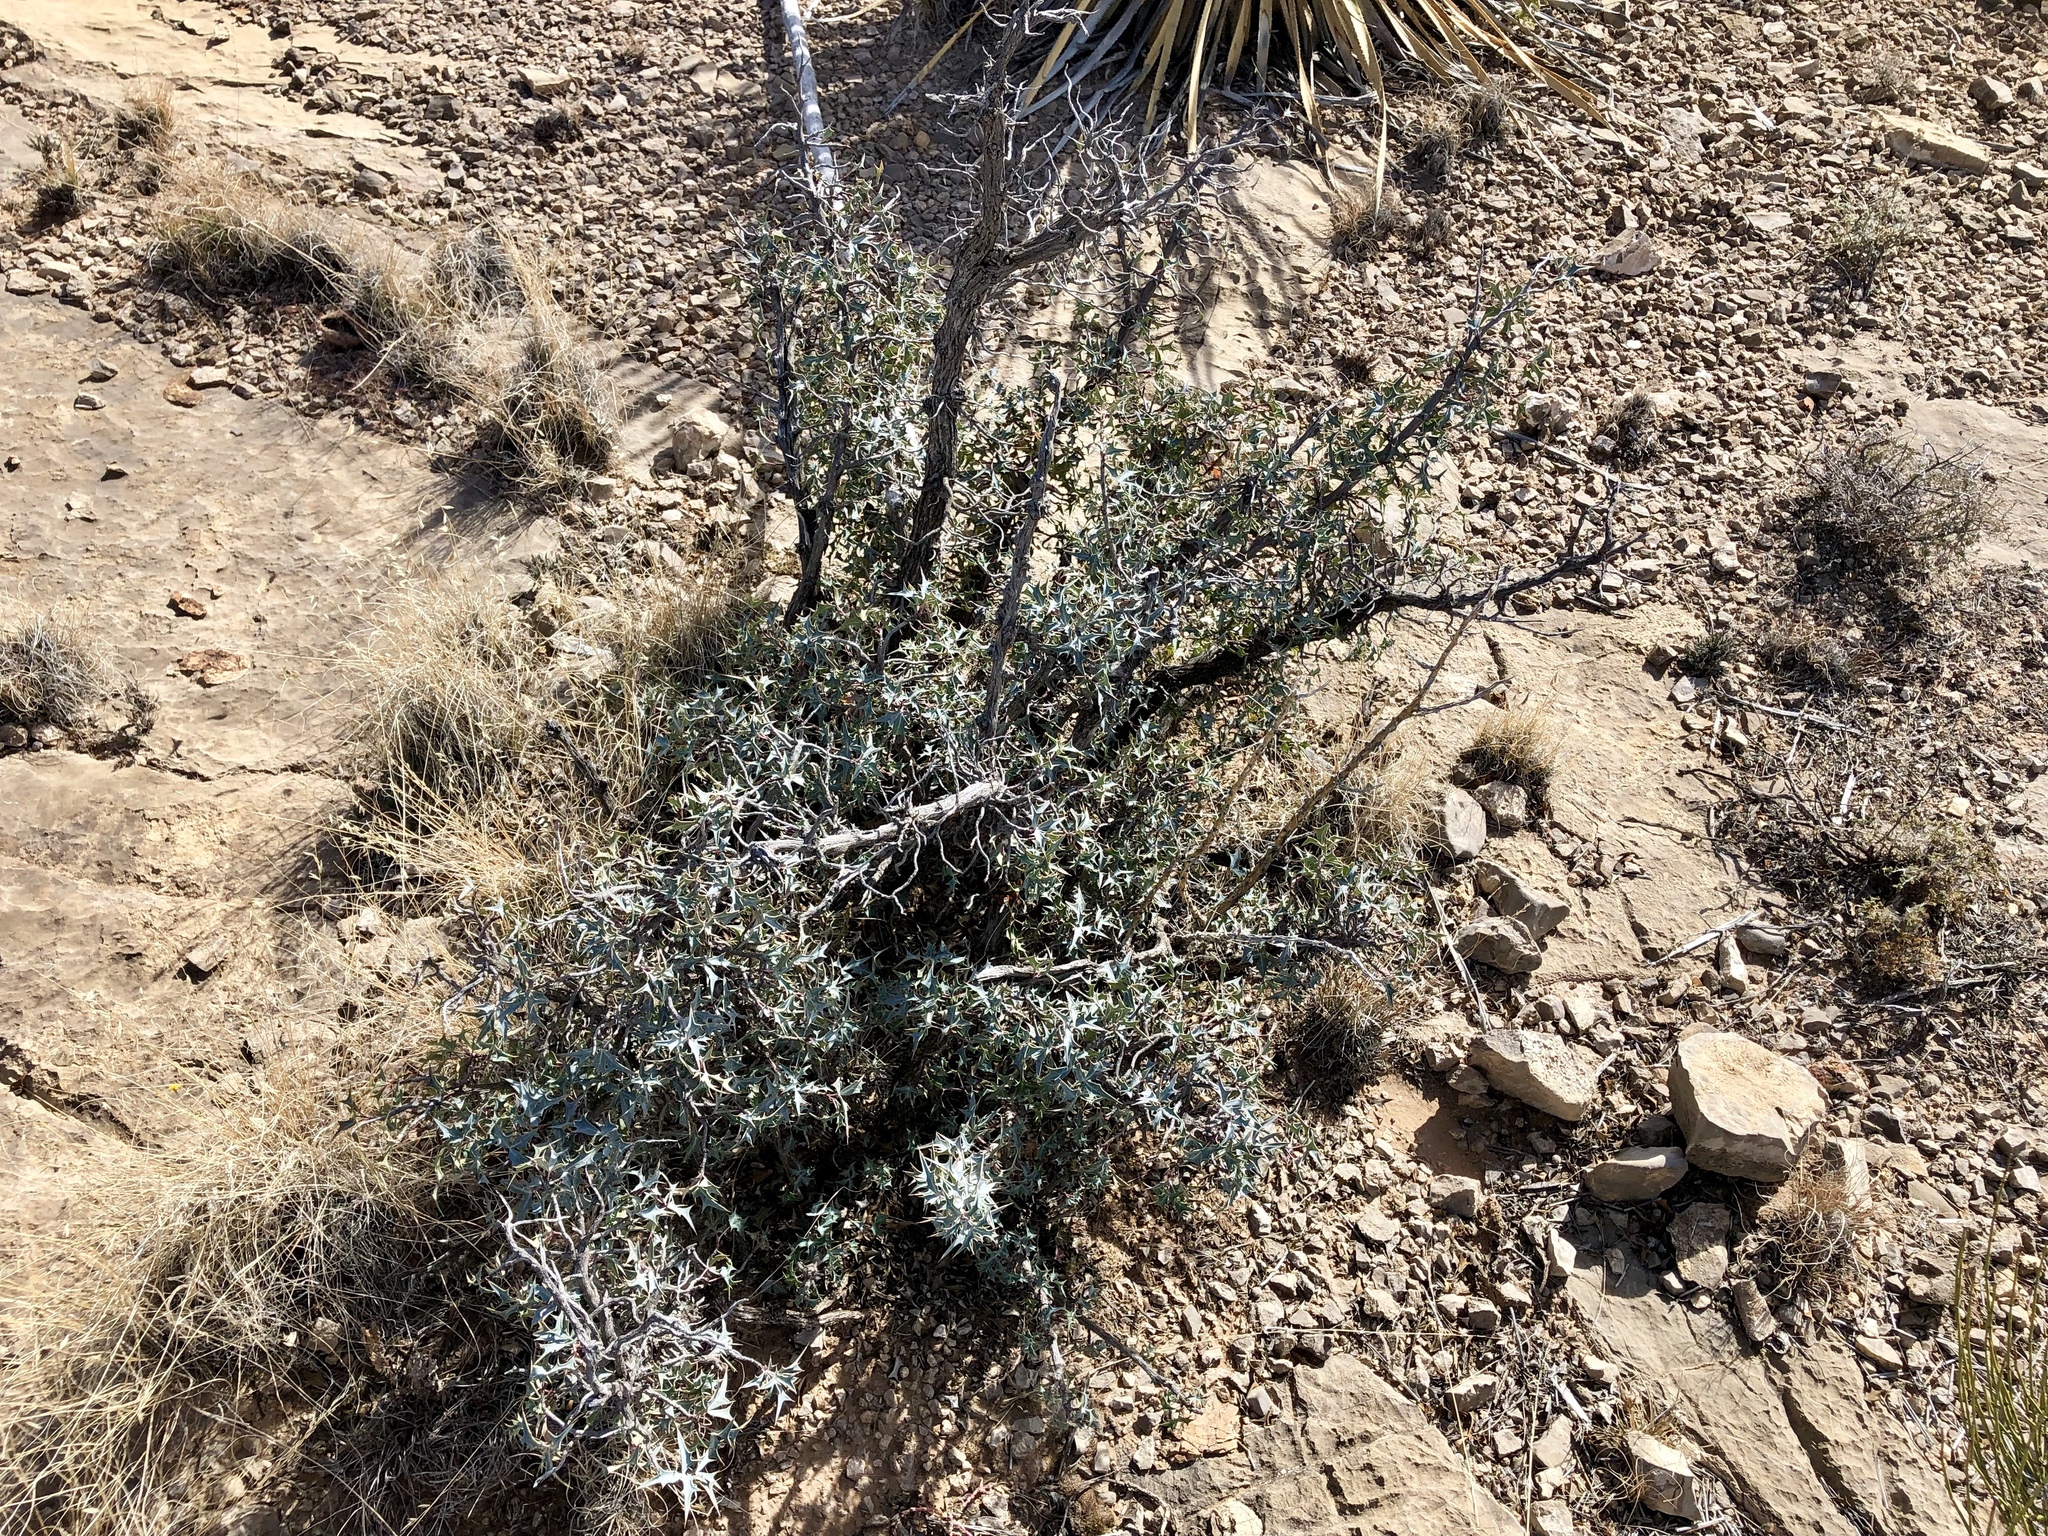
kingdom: Plantae
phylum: Tracheophyta
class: Magnoliopsida
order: Ranunculales
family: Berberidaceae
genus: Alloberberis
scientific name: Alloberberis trifoliolata
